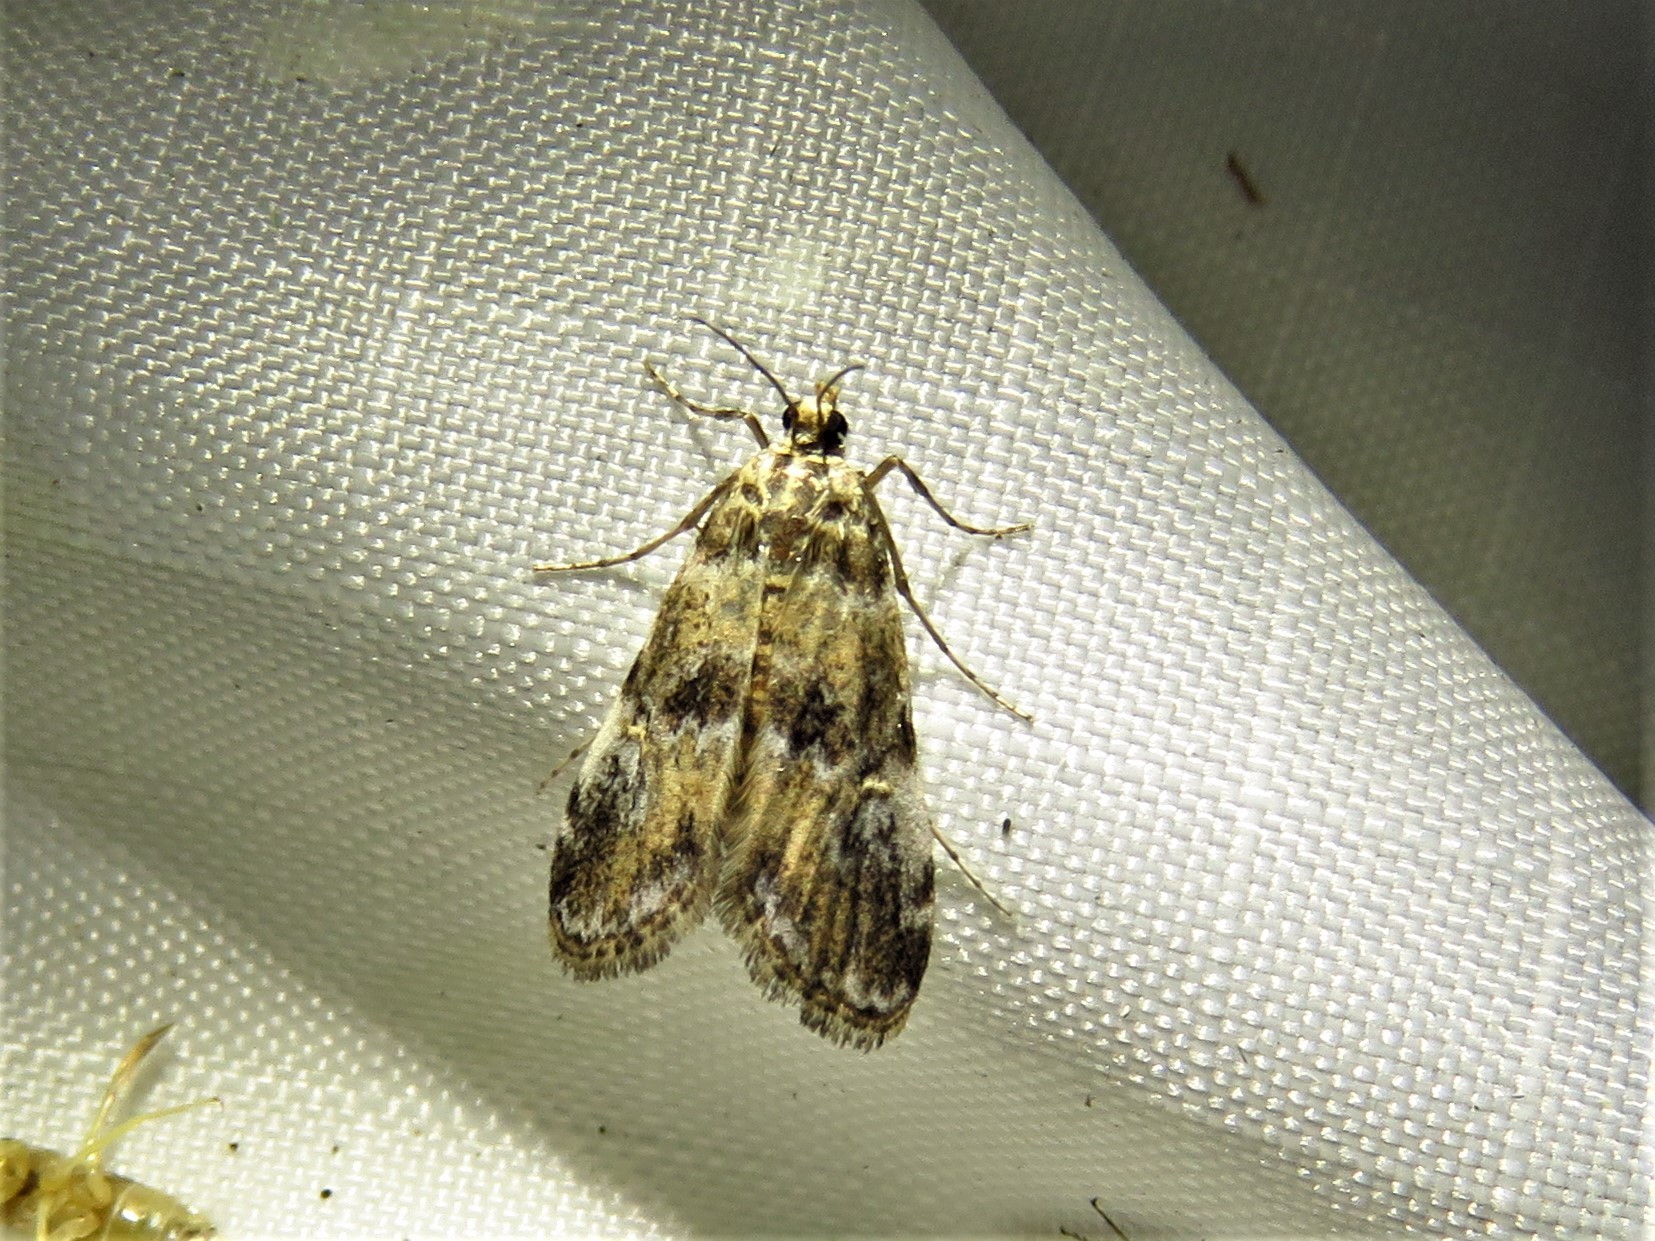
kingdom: Animalia
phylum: Arthropoda
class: Insecta
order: Lepidoptera
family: Crambidae
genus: Elophila
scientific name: Elophila obliteralis
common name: Waterlily leafcutter moth
